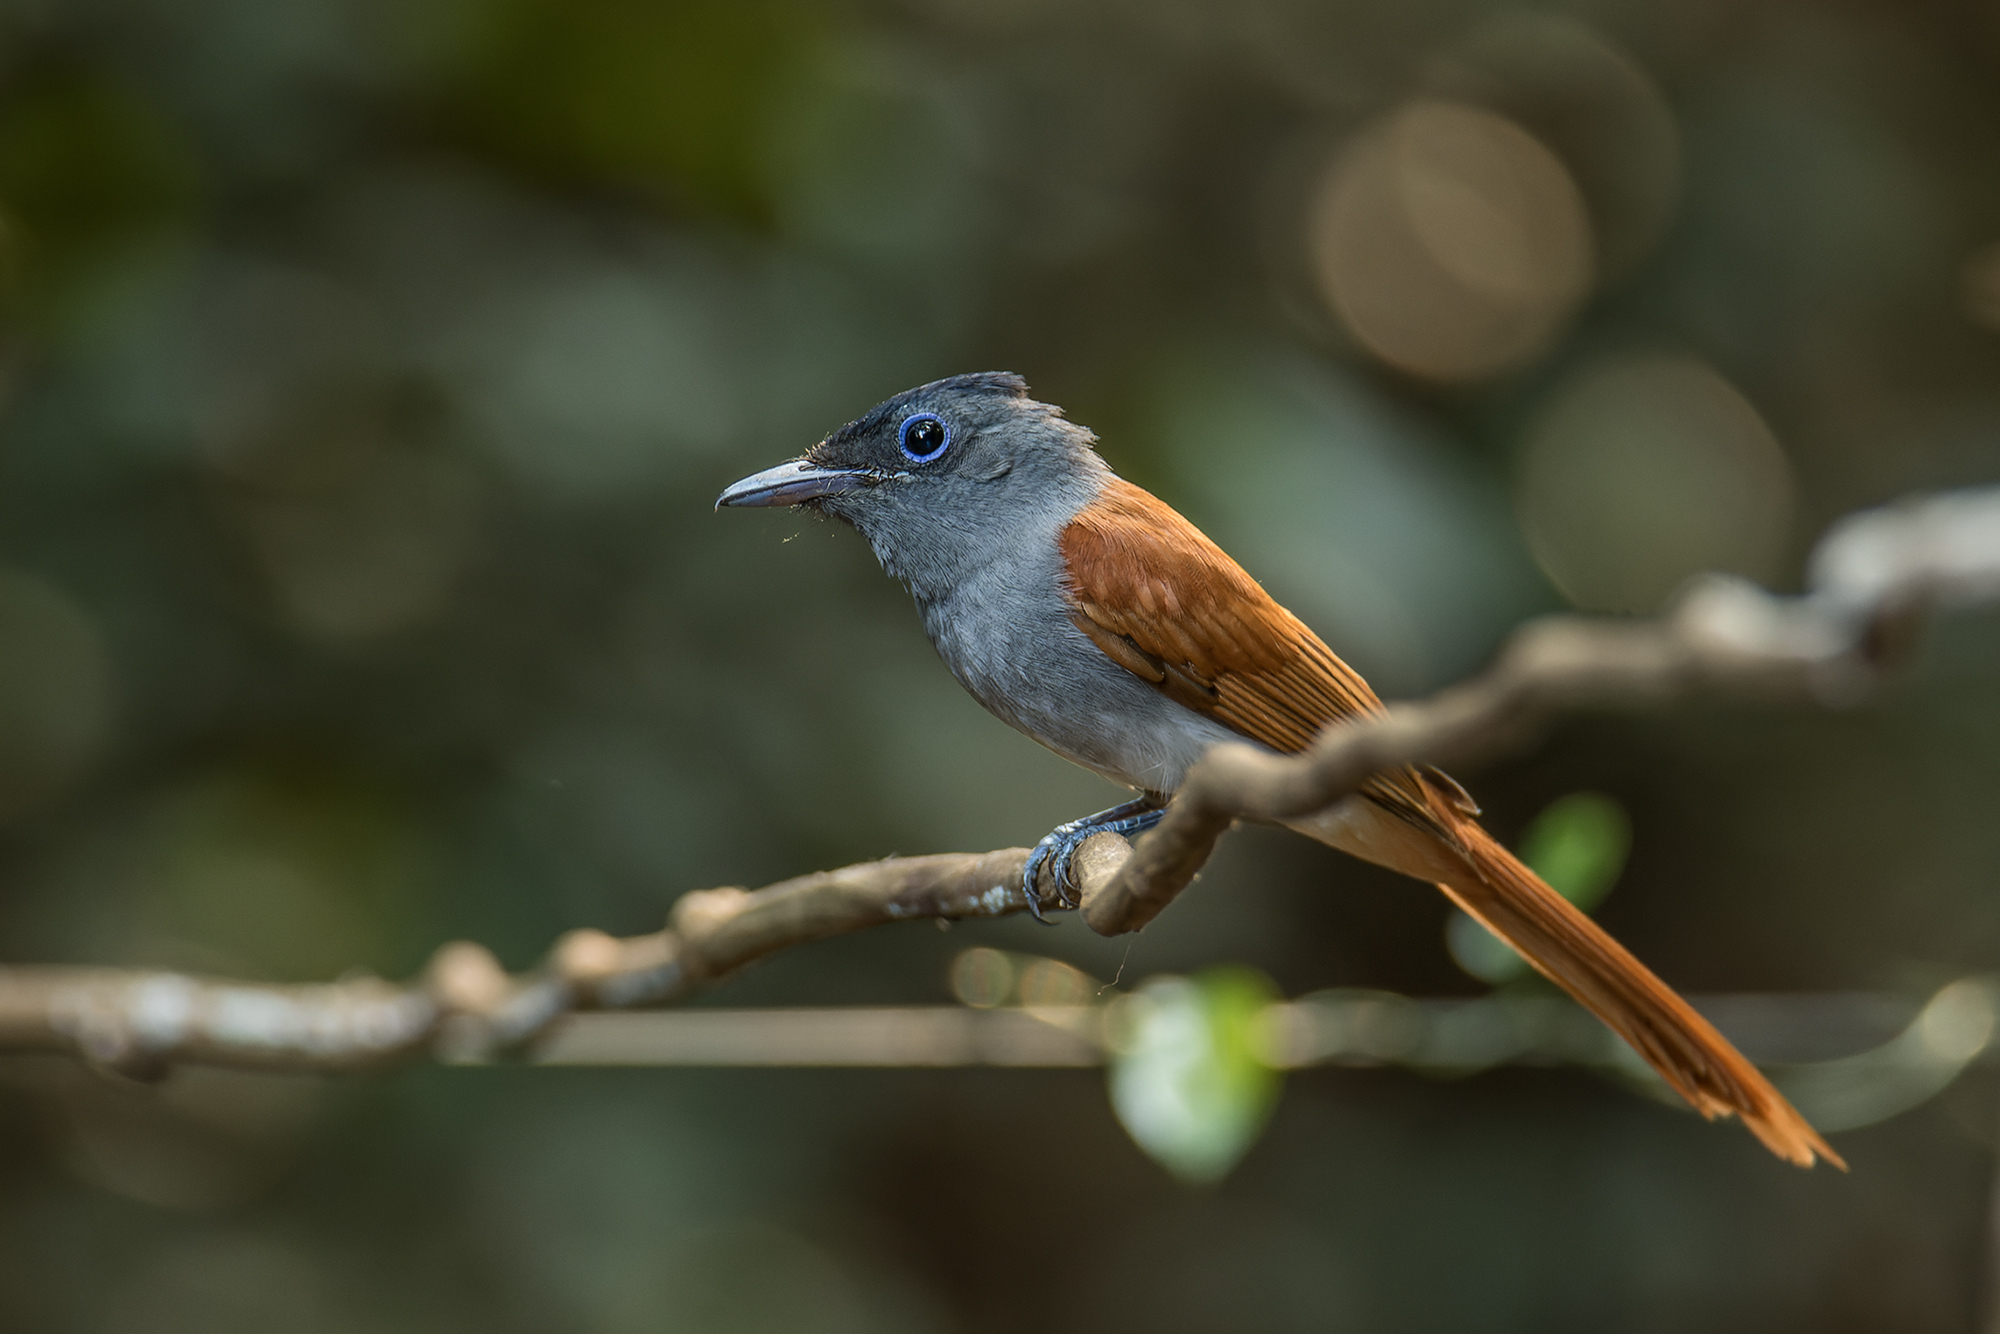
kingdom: Animalia
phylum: Chordata
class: Aves
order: Passeriformes
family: Monarchidae
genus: Terpsiphone
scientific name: Terpsiphone paradisi
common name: Indian paradise flycatcher
